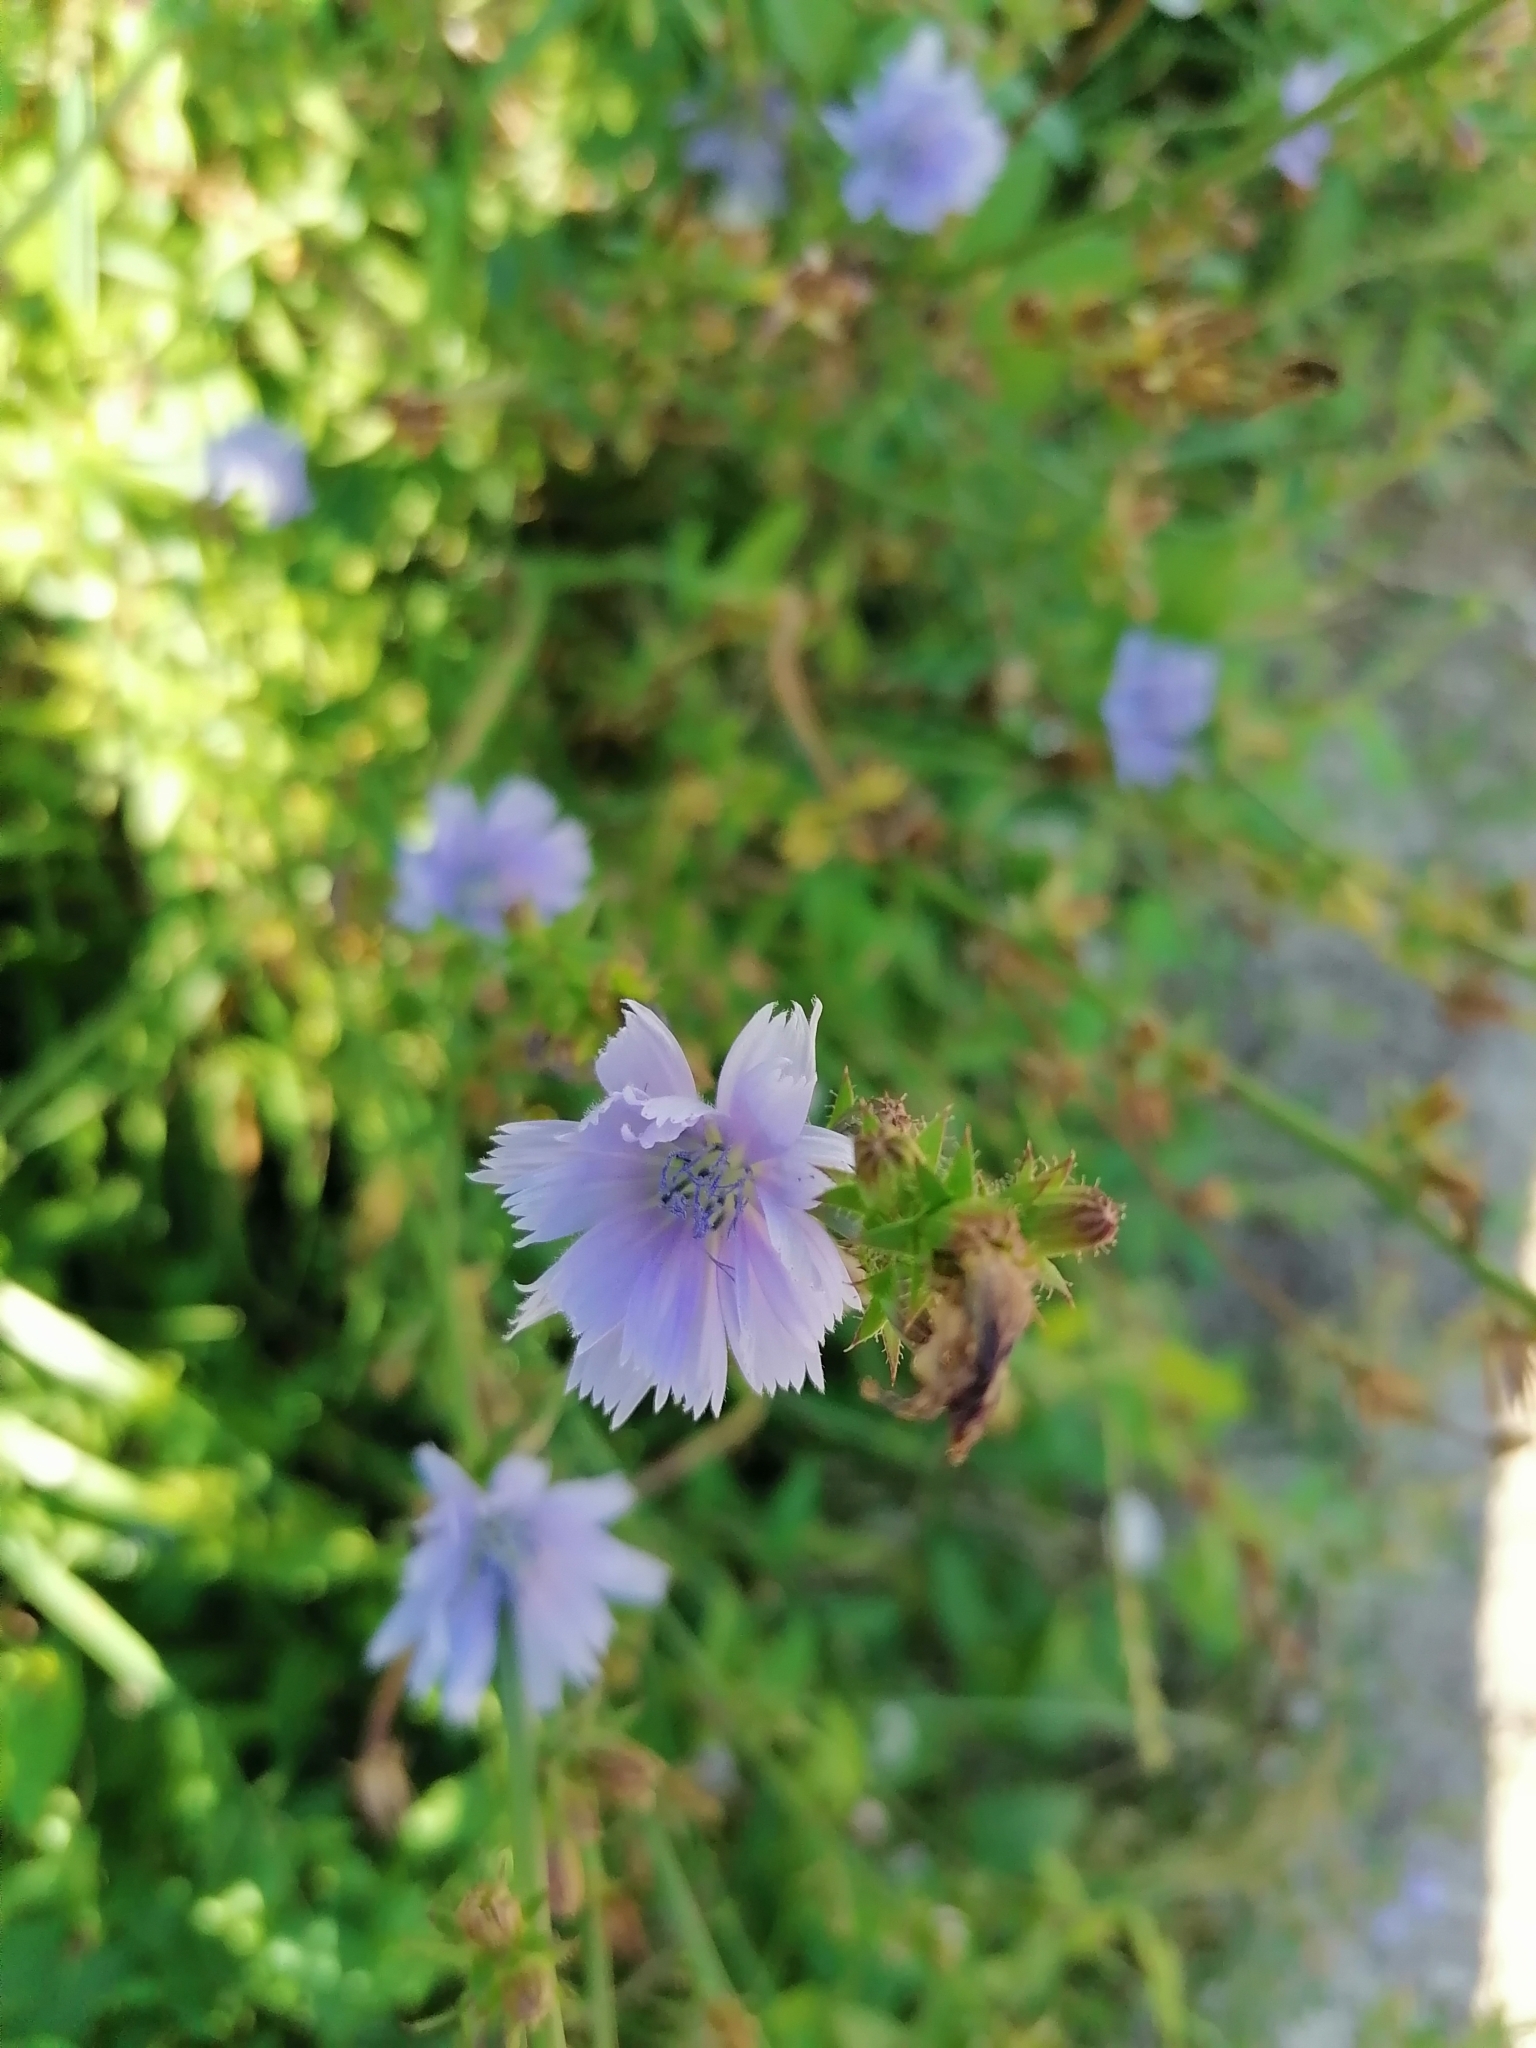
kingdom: Plantae
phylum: Tracheophyta
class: Magnoliopsida
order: Asterales
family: Asteraceae
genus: Cichorium
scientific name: Cichorium intybus
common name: Chicory
